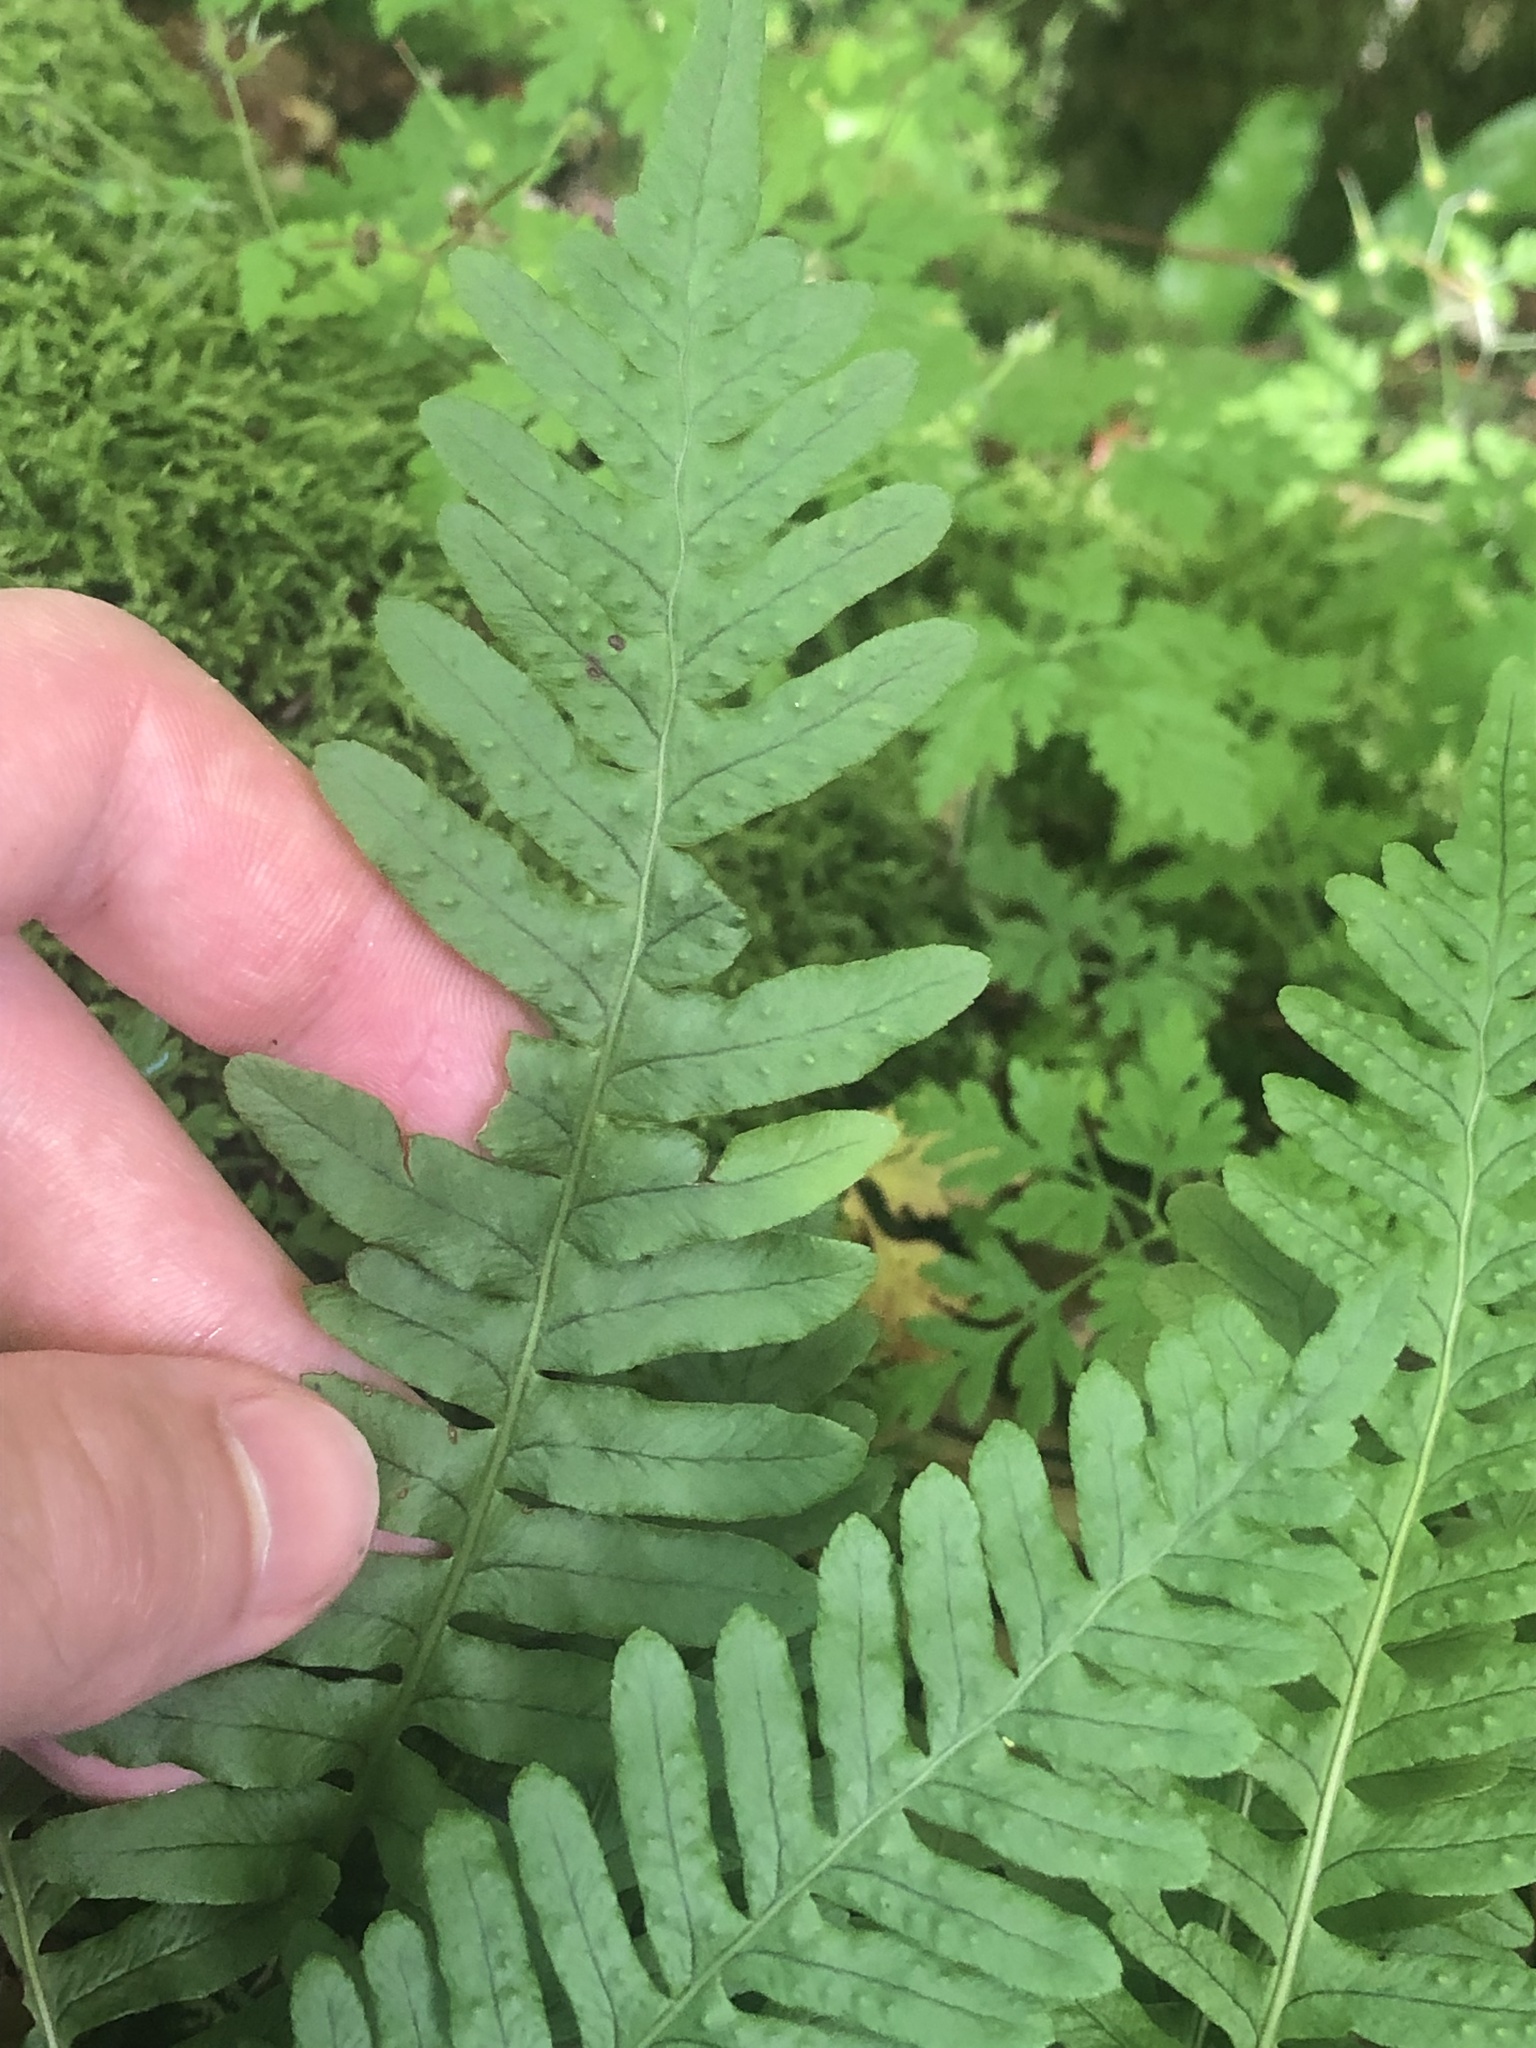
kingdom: Plantae
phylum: Tracheophyta
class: Polypodiopsida
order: Polypodiales
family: Polypodiaceae
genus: Polypodium
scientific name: Polypodium vulgare
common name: Common polypody
